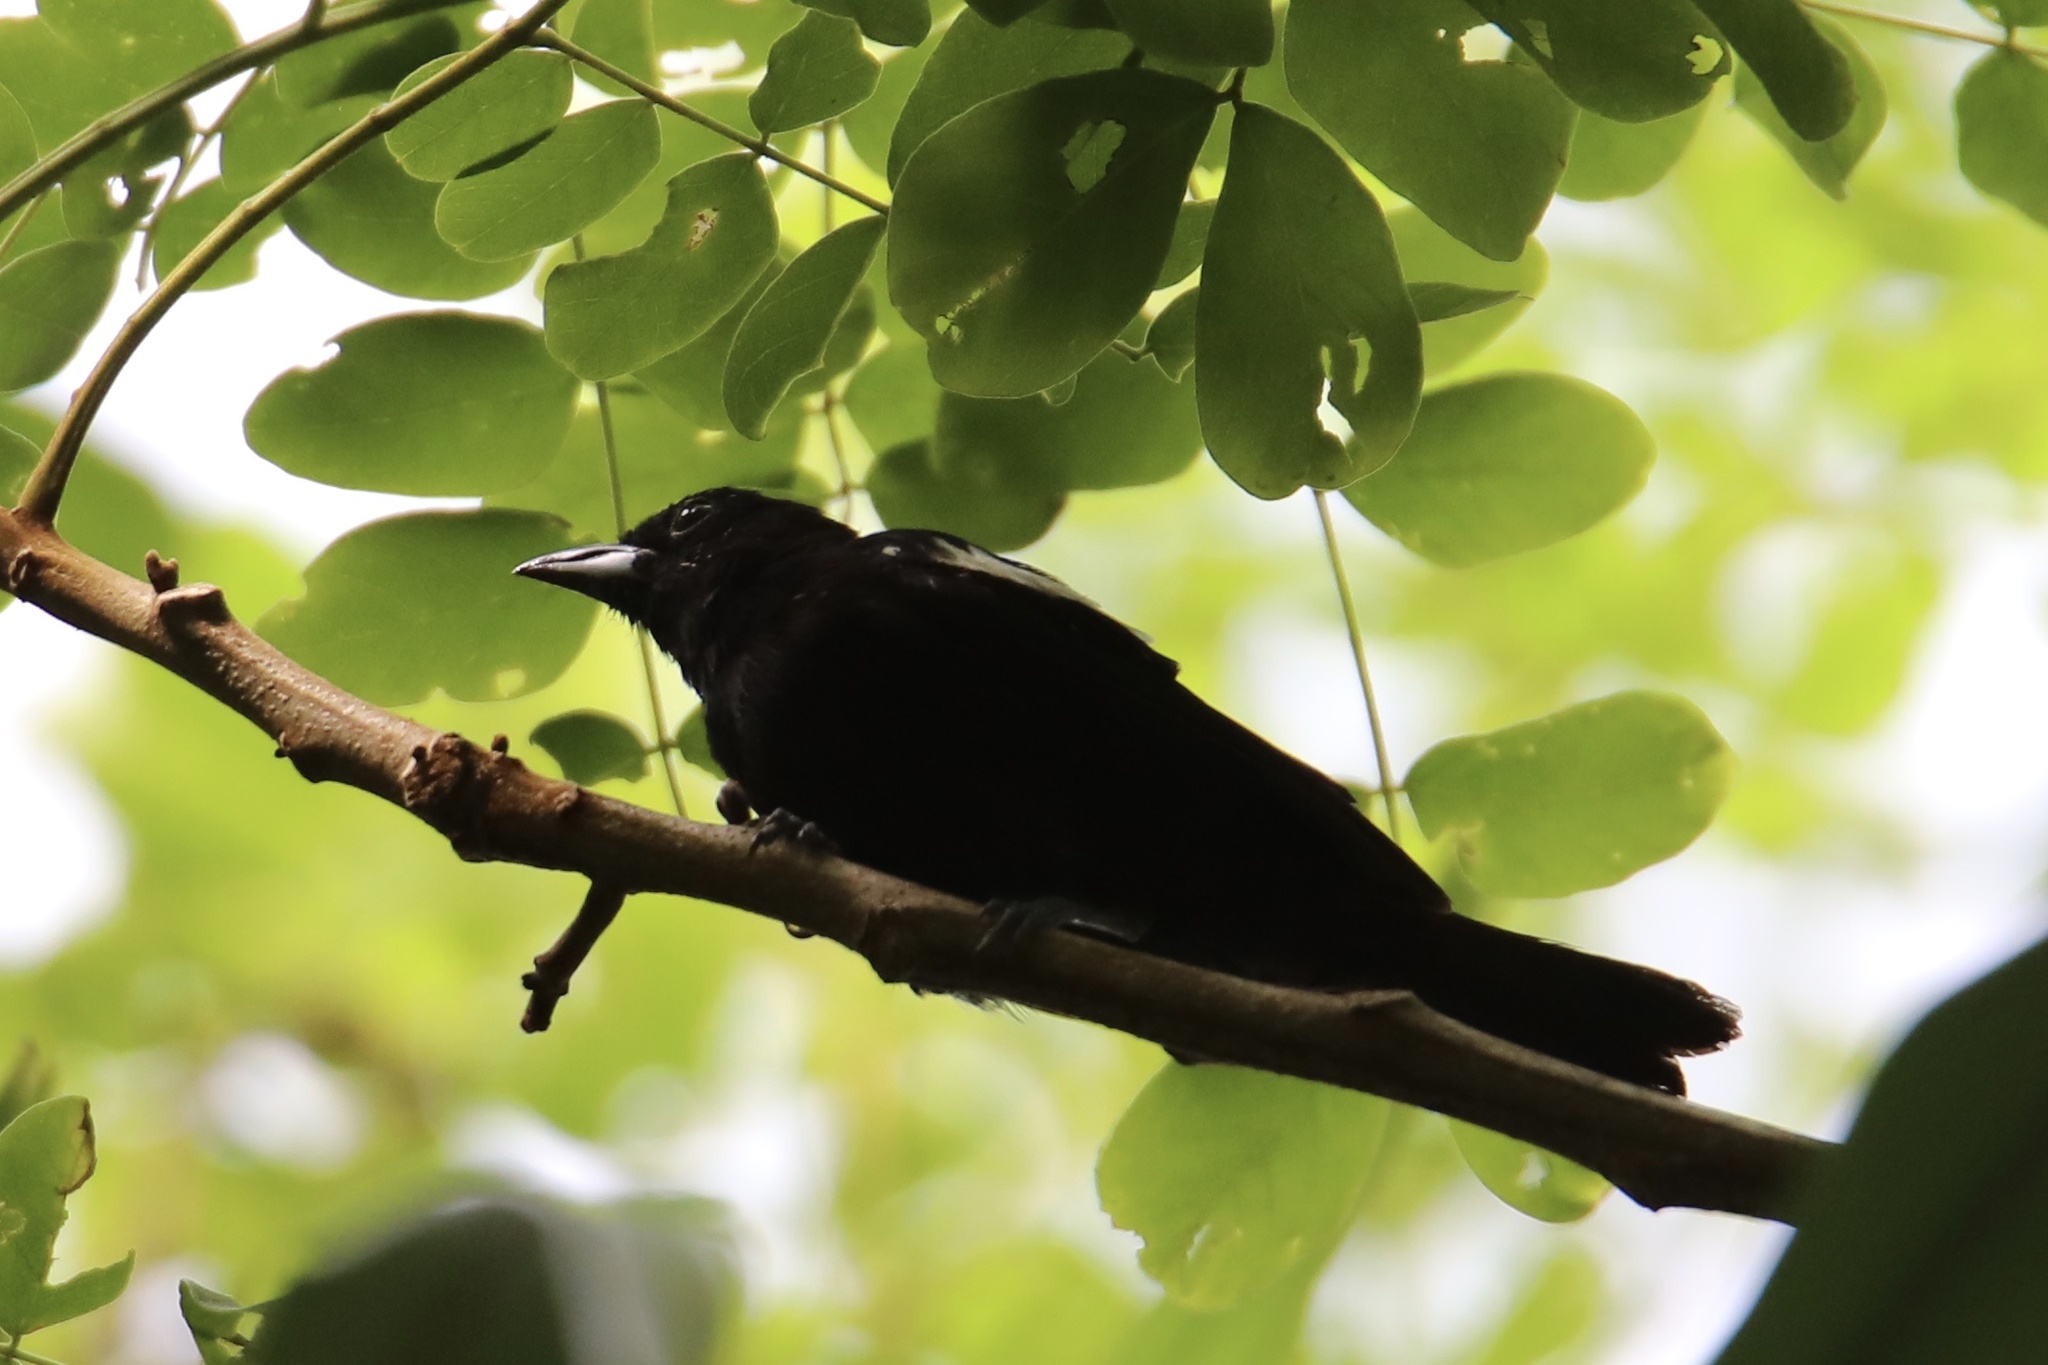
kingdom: Animalia
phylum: Chordata
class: Aves
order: Passeriformes
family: Thraupidae
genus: Loriotus
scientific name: Loriotus luctuosus
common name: White-shouldered tanager
